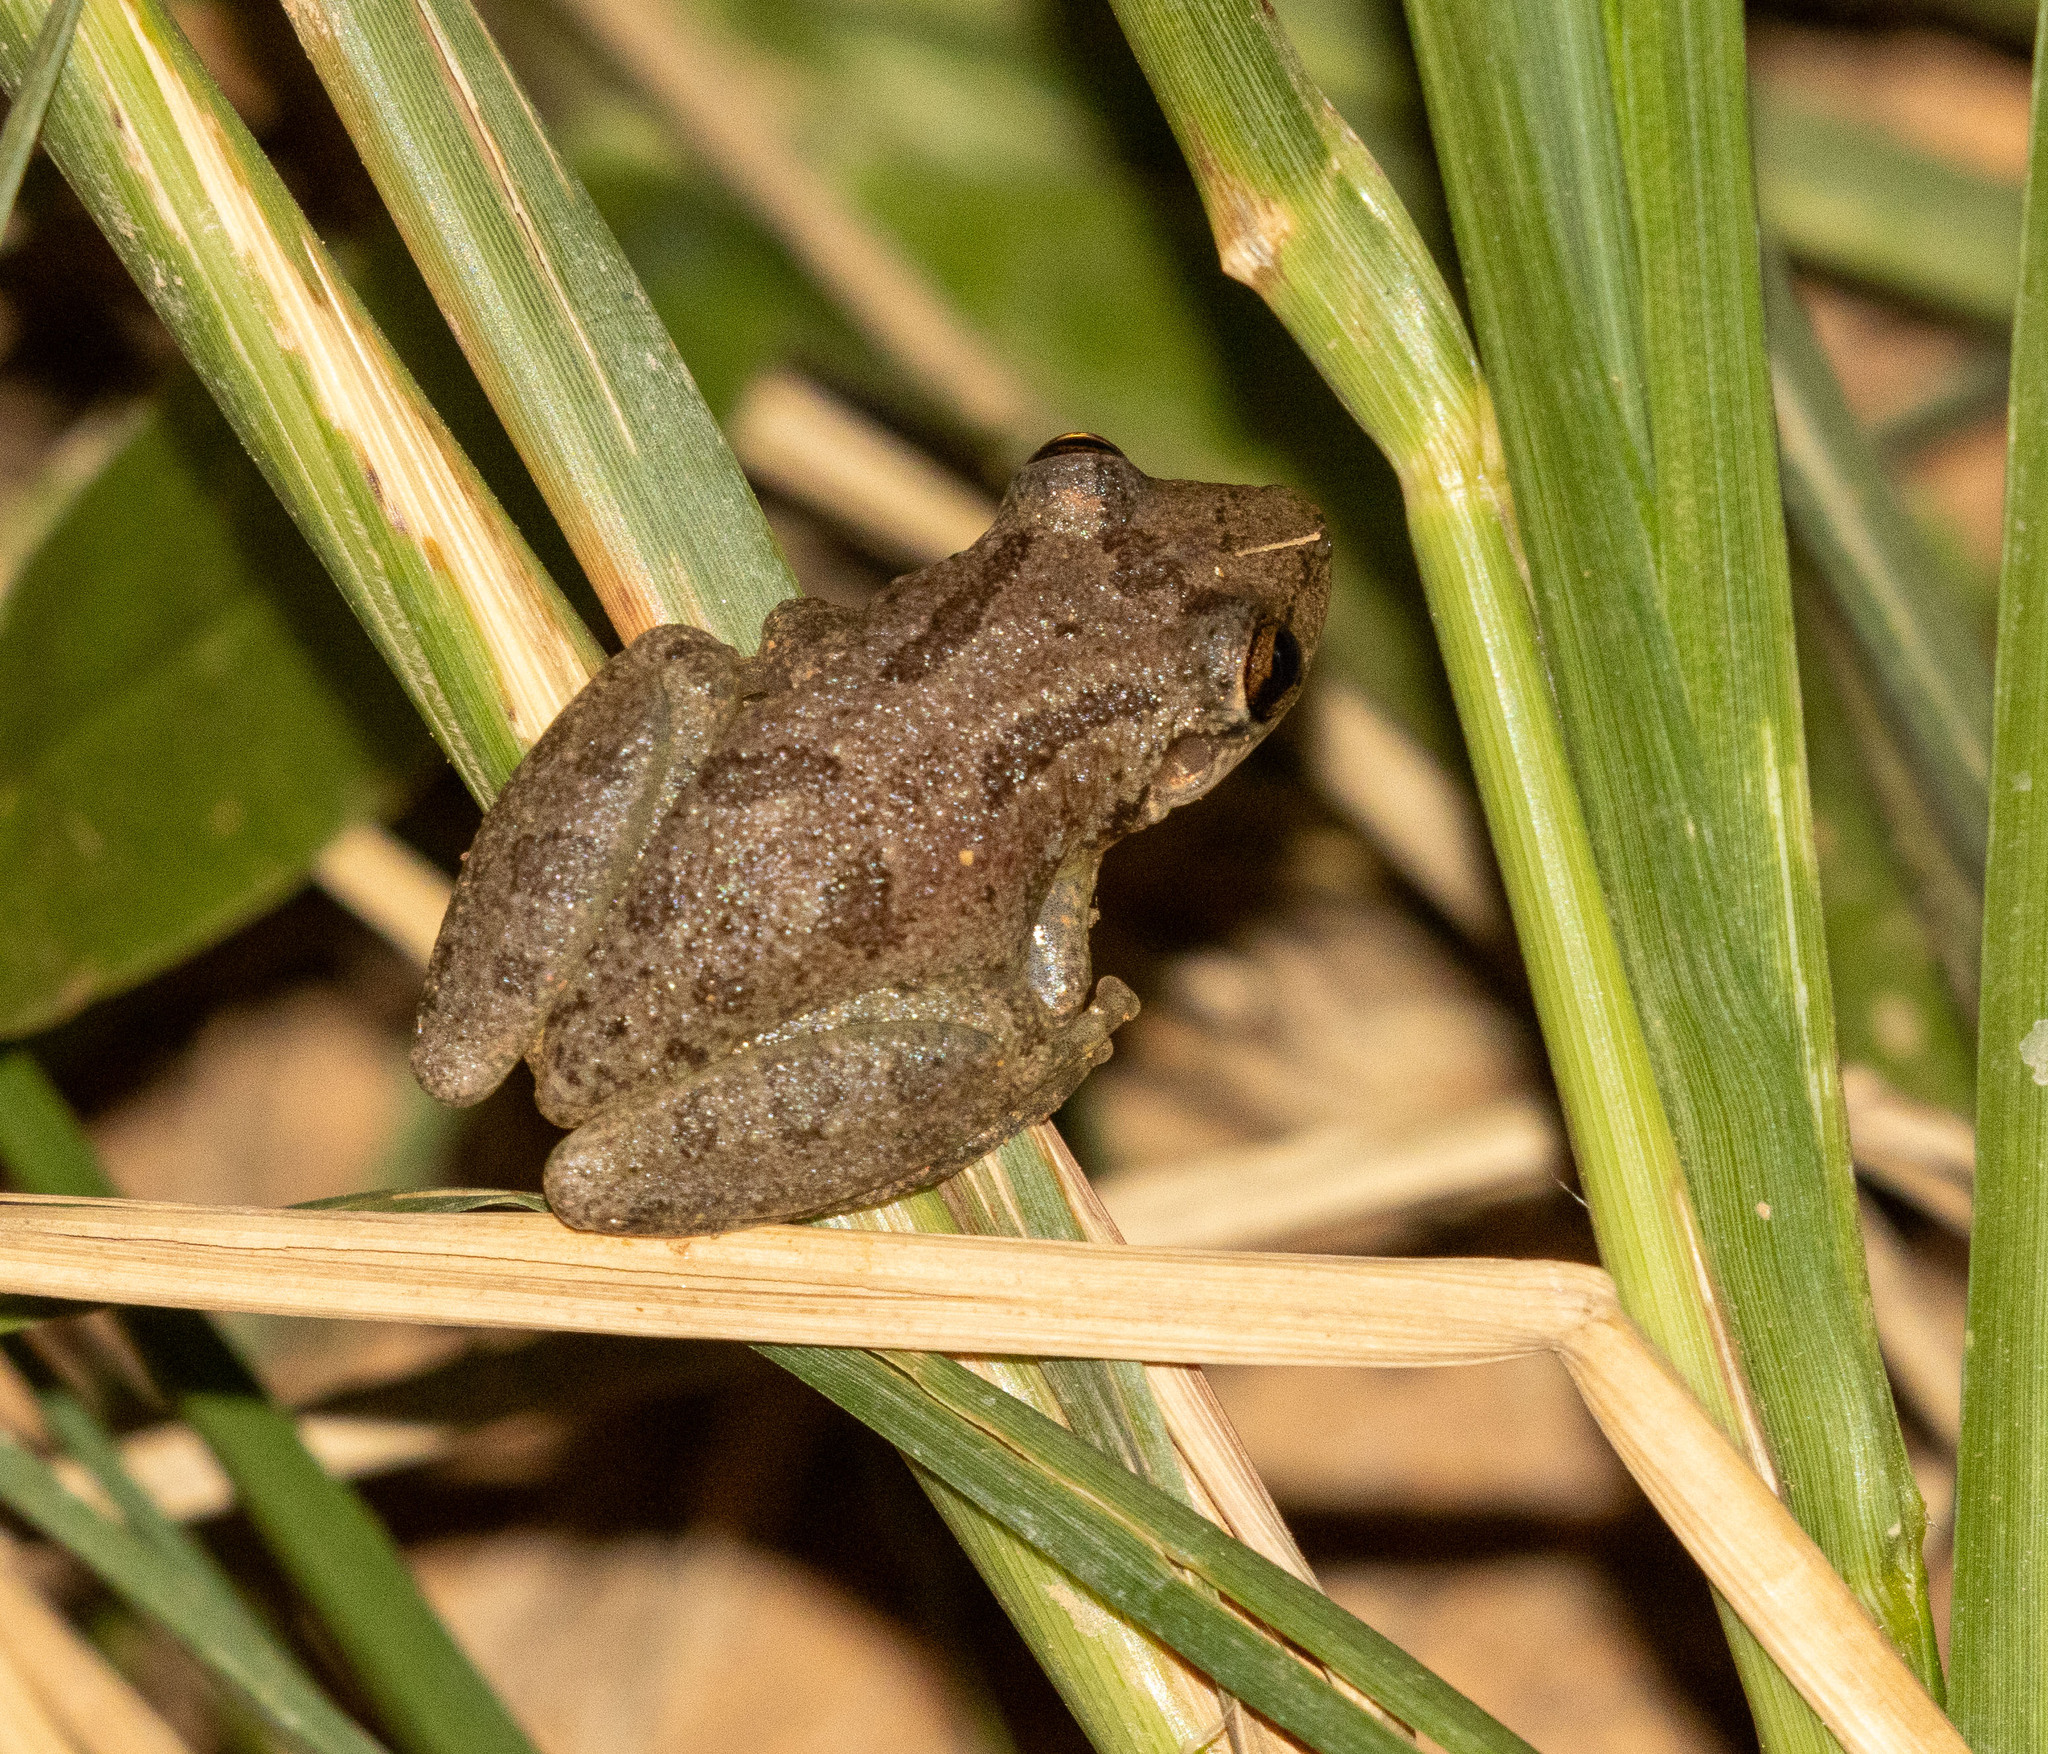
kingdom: Animalia
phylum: Chordata
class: Amphibia
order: Anura
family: Hylidae
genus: Scinax
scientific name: Scinax x-signatus
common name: Venezuela snouted treefrog
